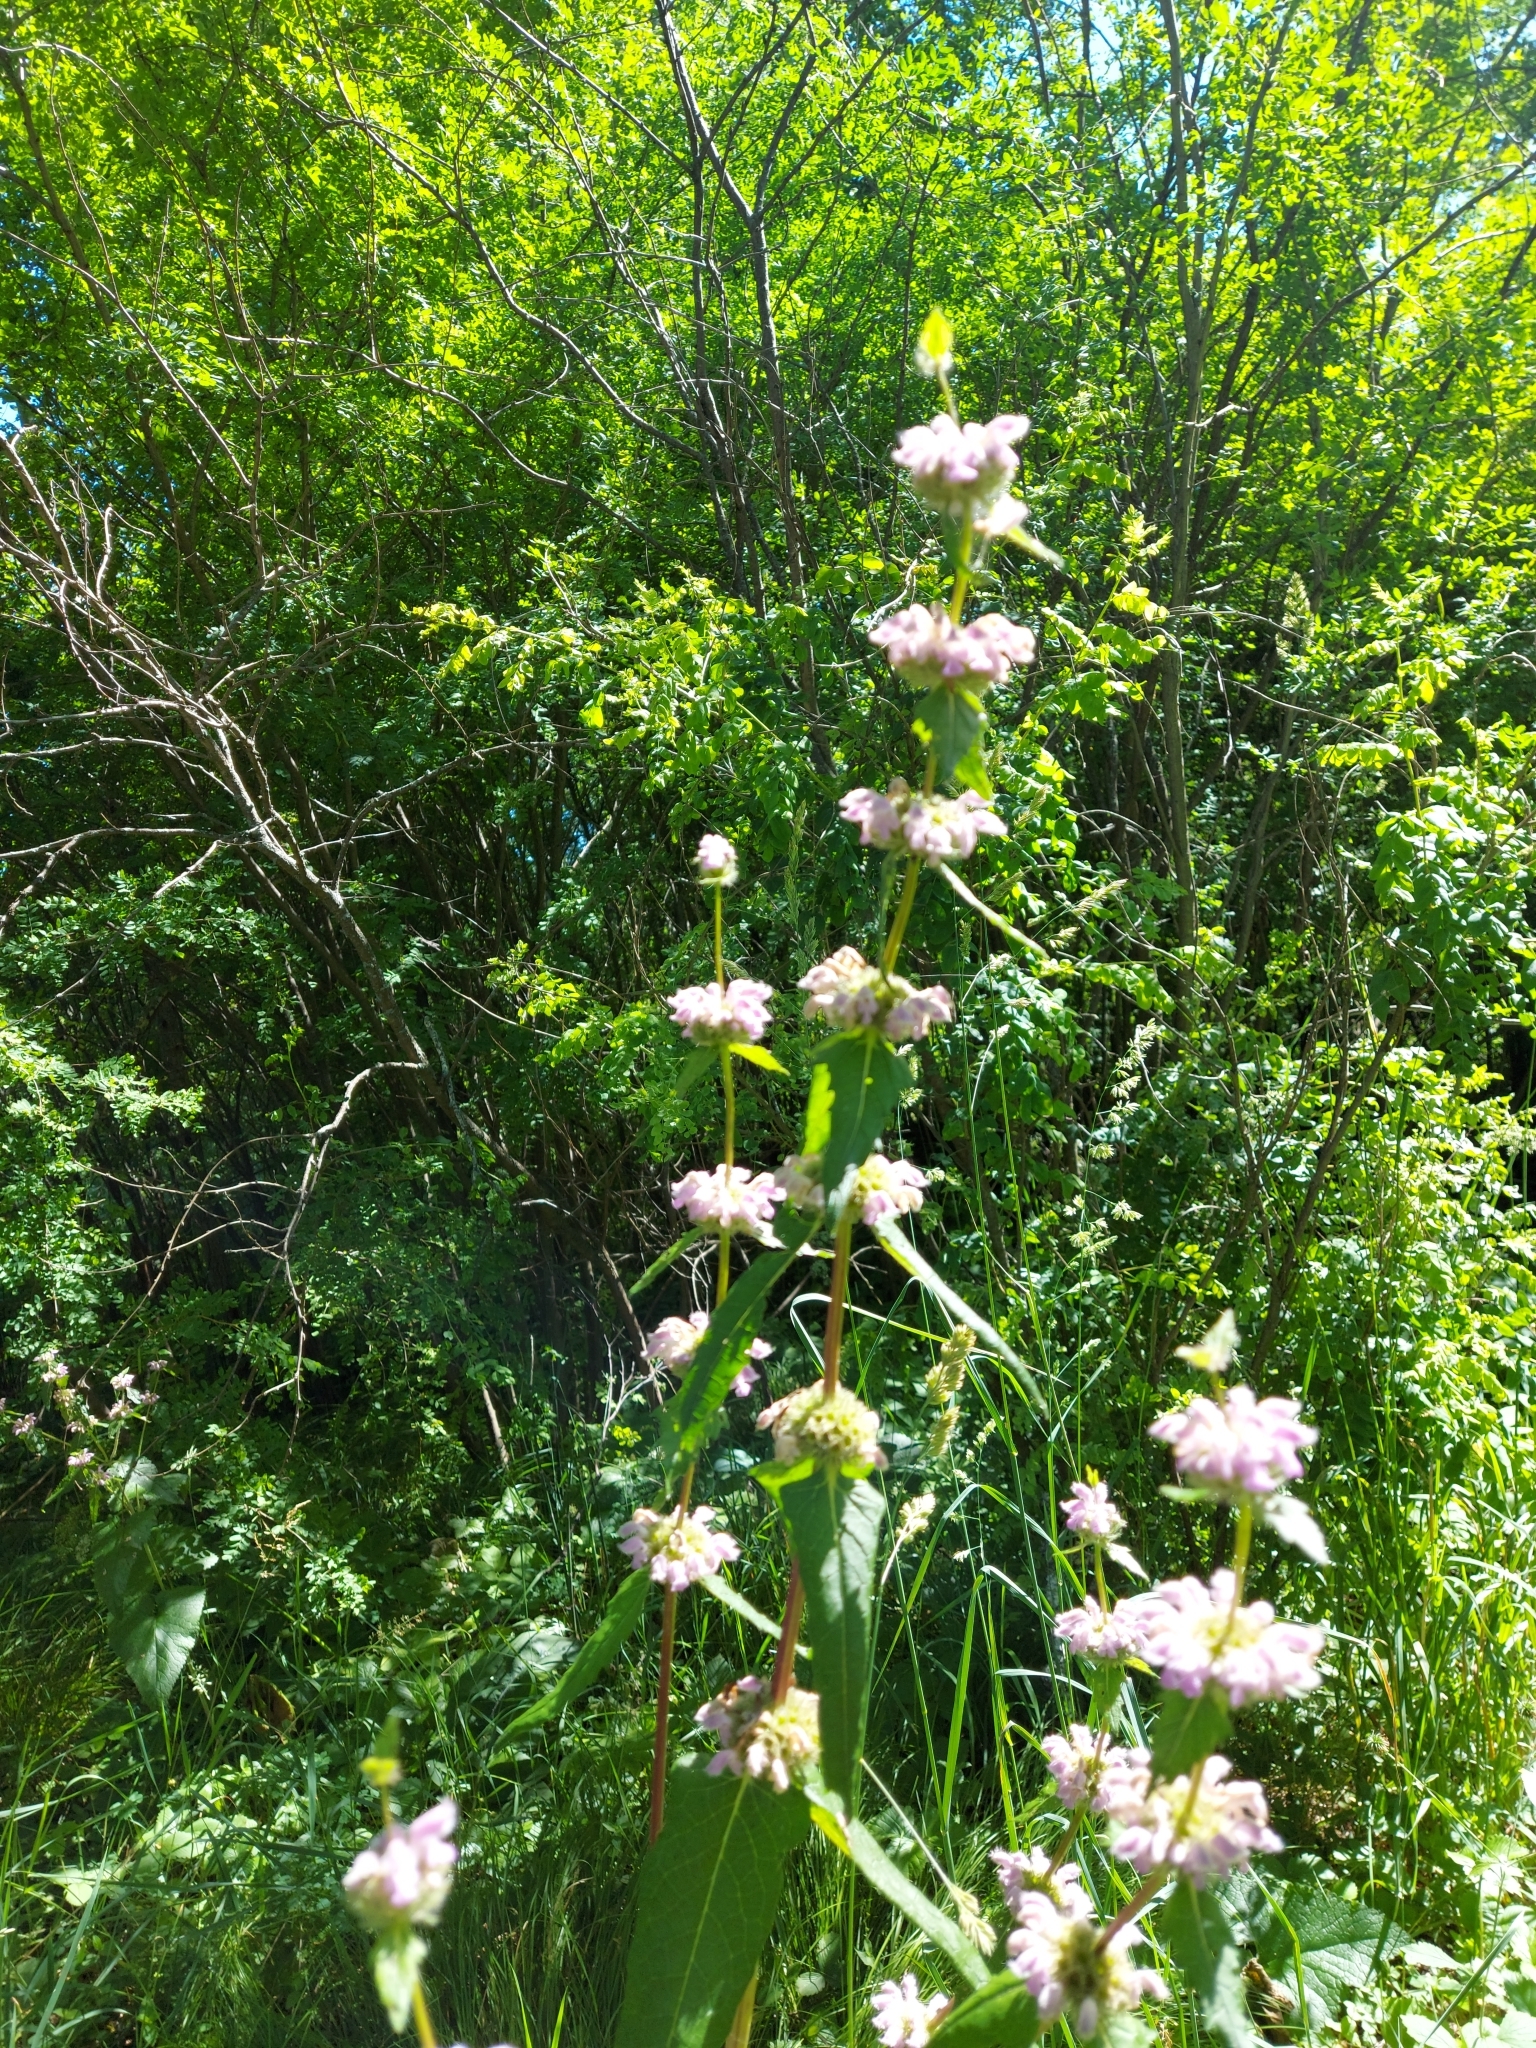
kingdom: Plantae
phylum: Tracheophyta
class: Magnoliopsida
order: Lamiales
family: Lamiaceae
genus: Phlomoides
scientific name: Phlomoides tuberosa
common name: Tuberous jerusalem sage
